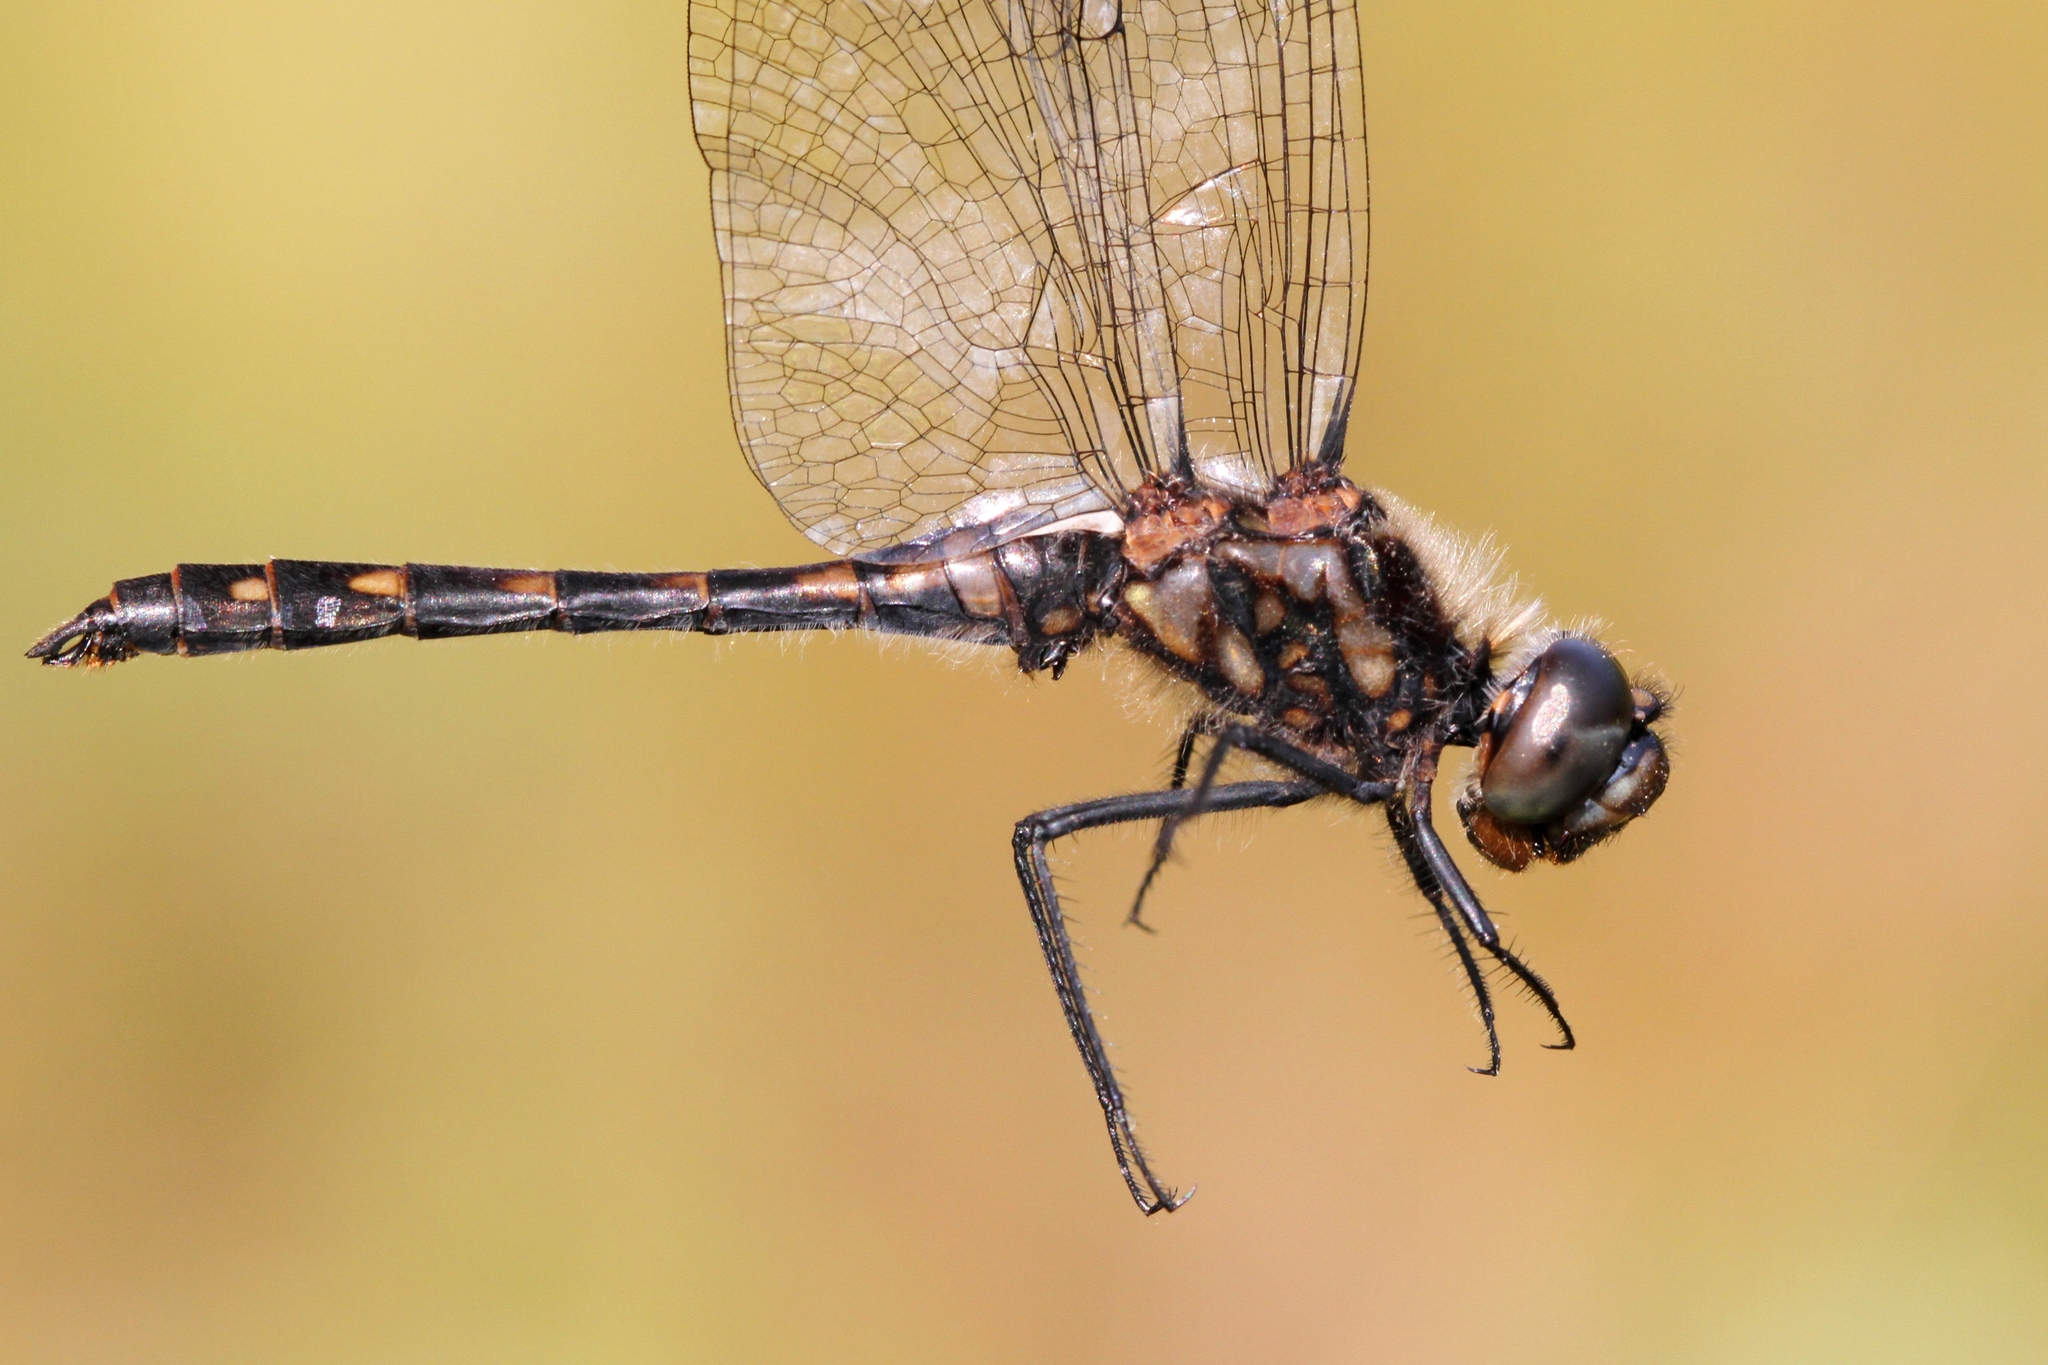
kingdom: Animalia
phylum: Arthropoda
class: Insecta
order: Odonata
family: Libellulidae
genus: Sympetrum
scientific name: Sympetrum danae
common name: Black darter
